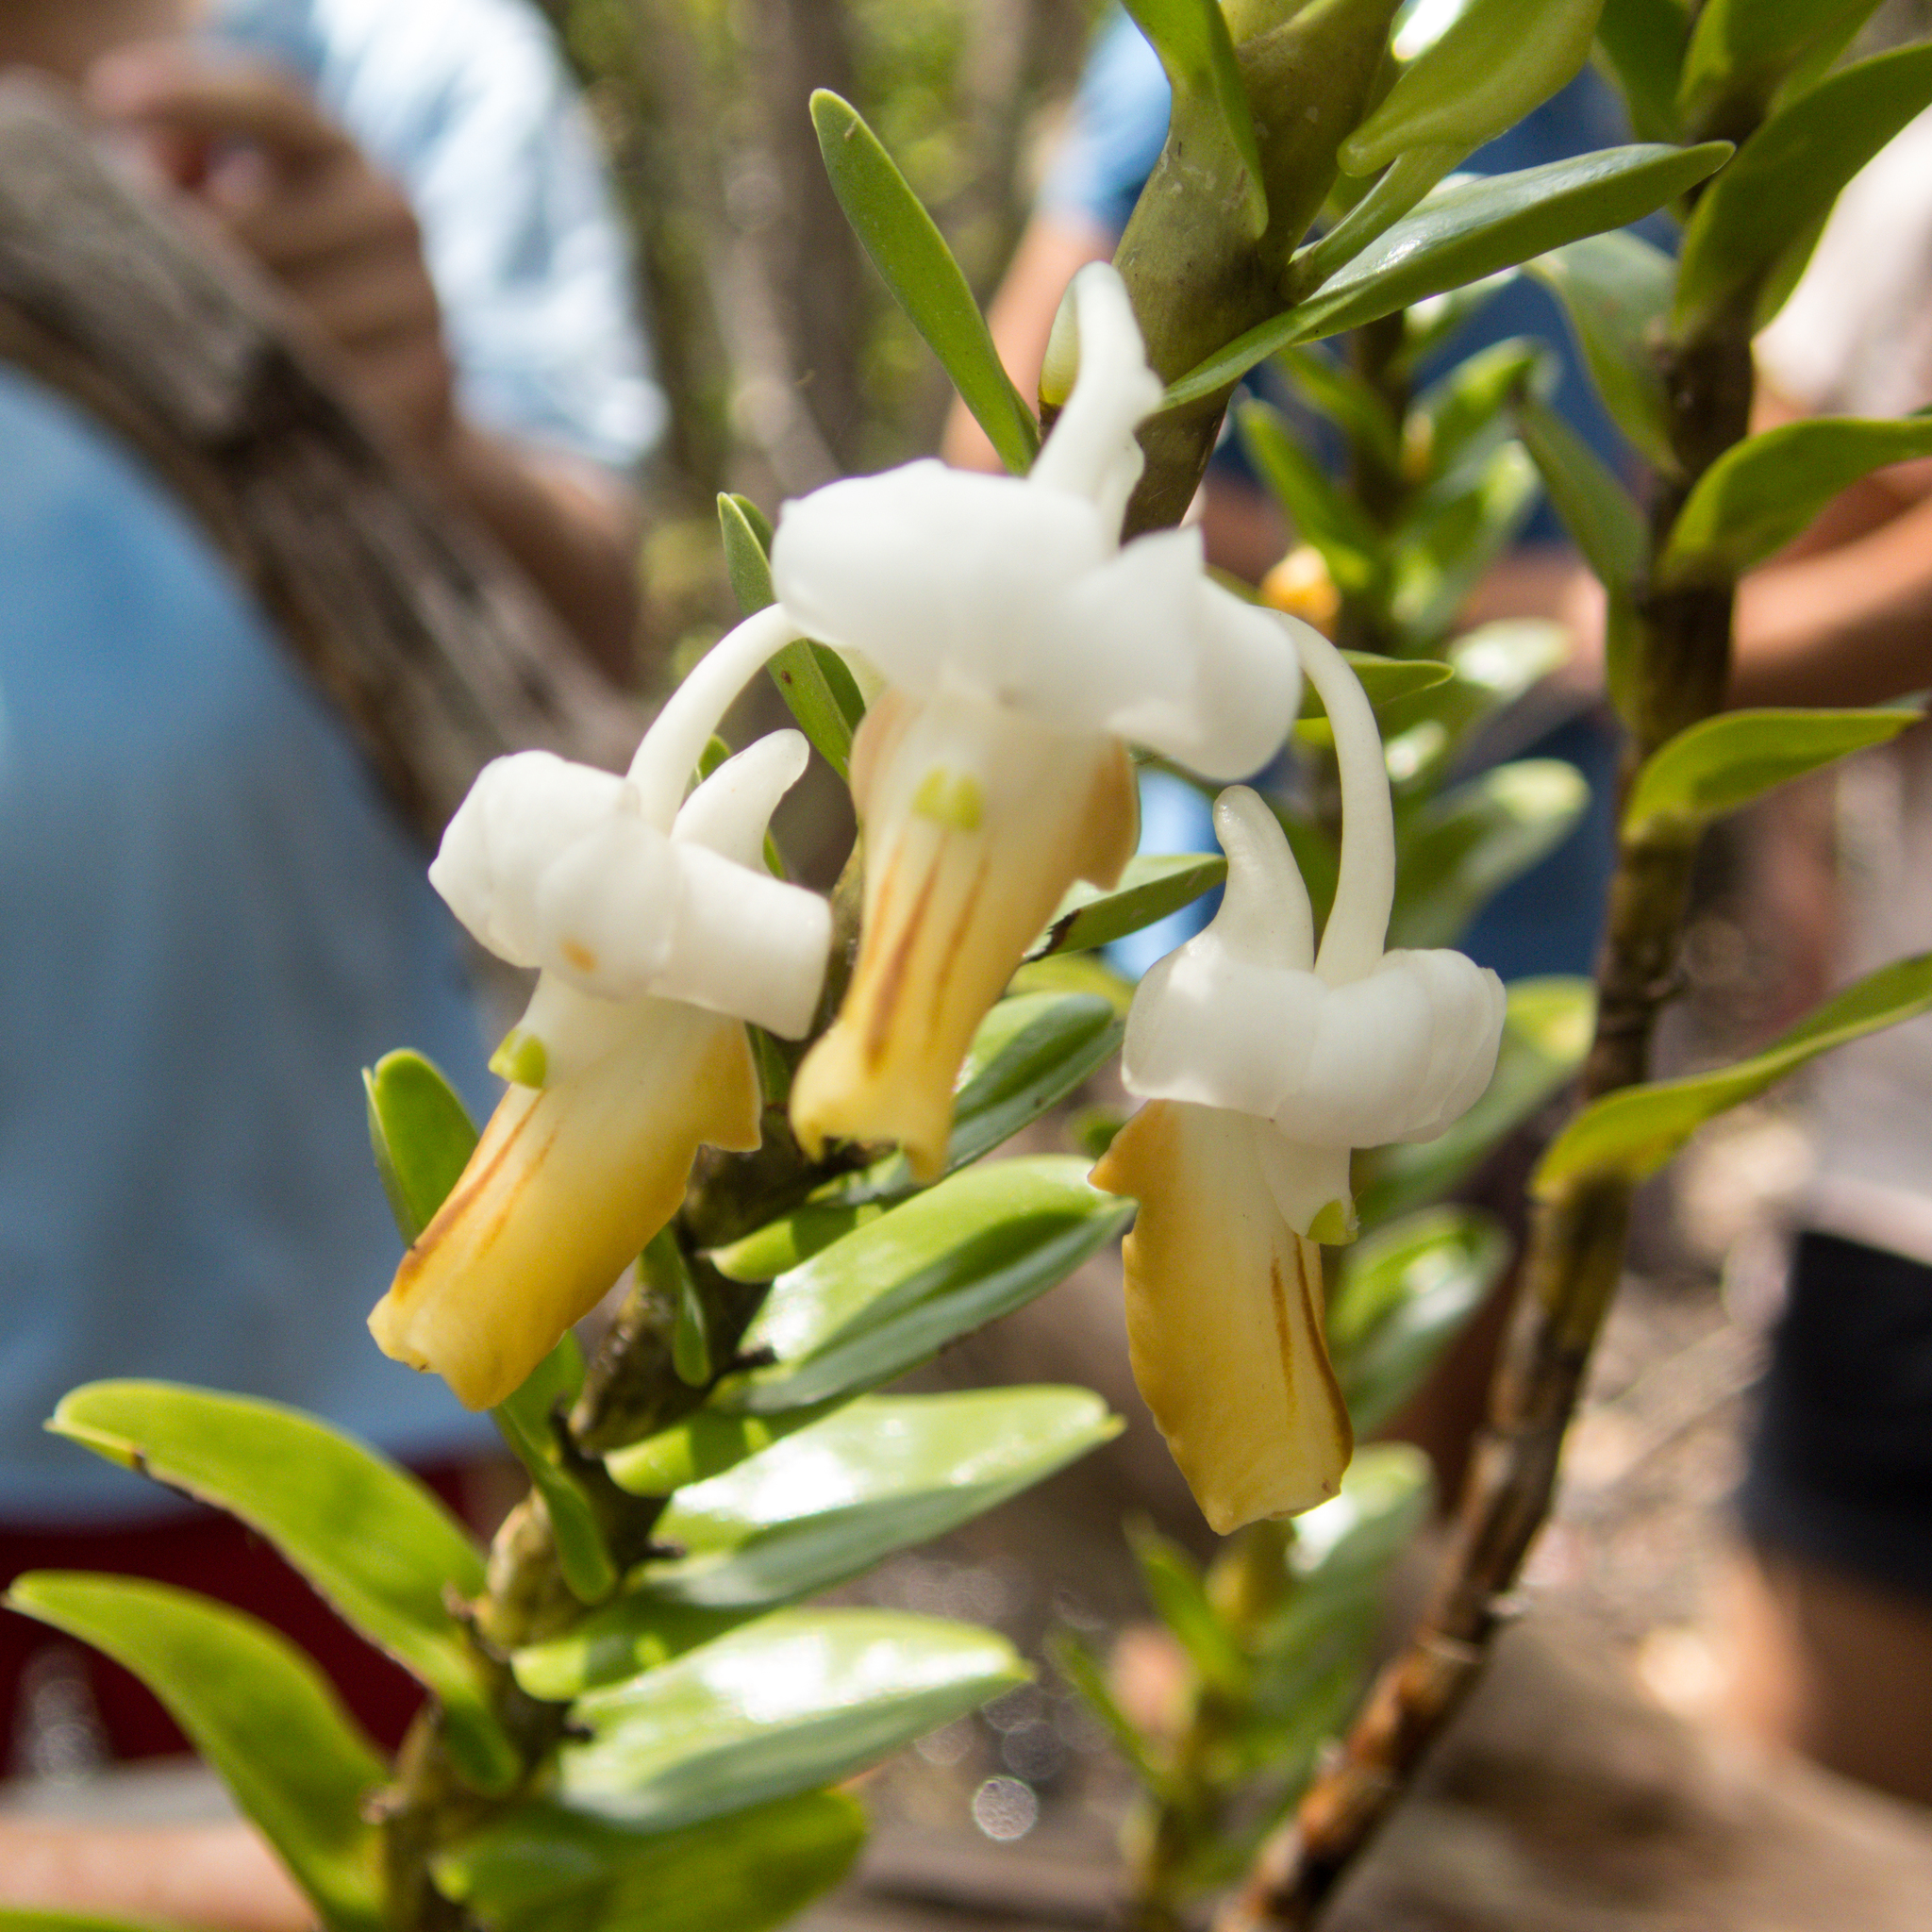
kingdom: Plantae
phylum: Tracheophyta
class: Liliopsida
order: Asparagales
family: Orchidaceae
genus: Dendrobium
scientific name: Dendrobium ellipsophyllum
